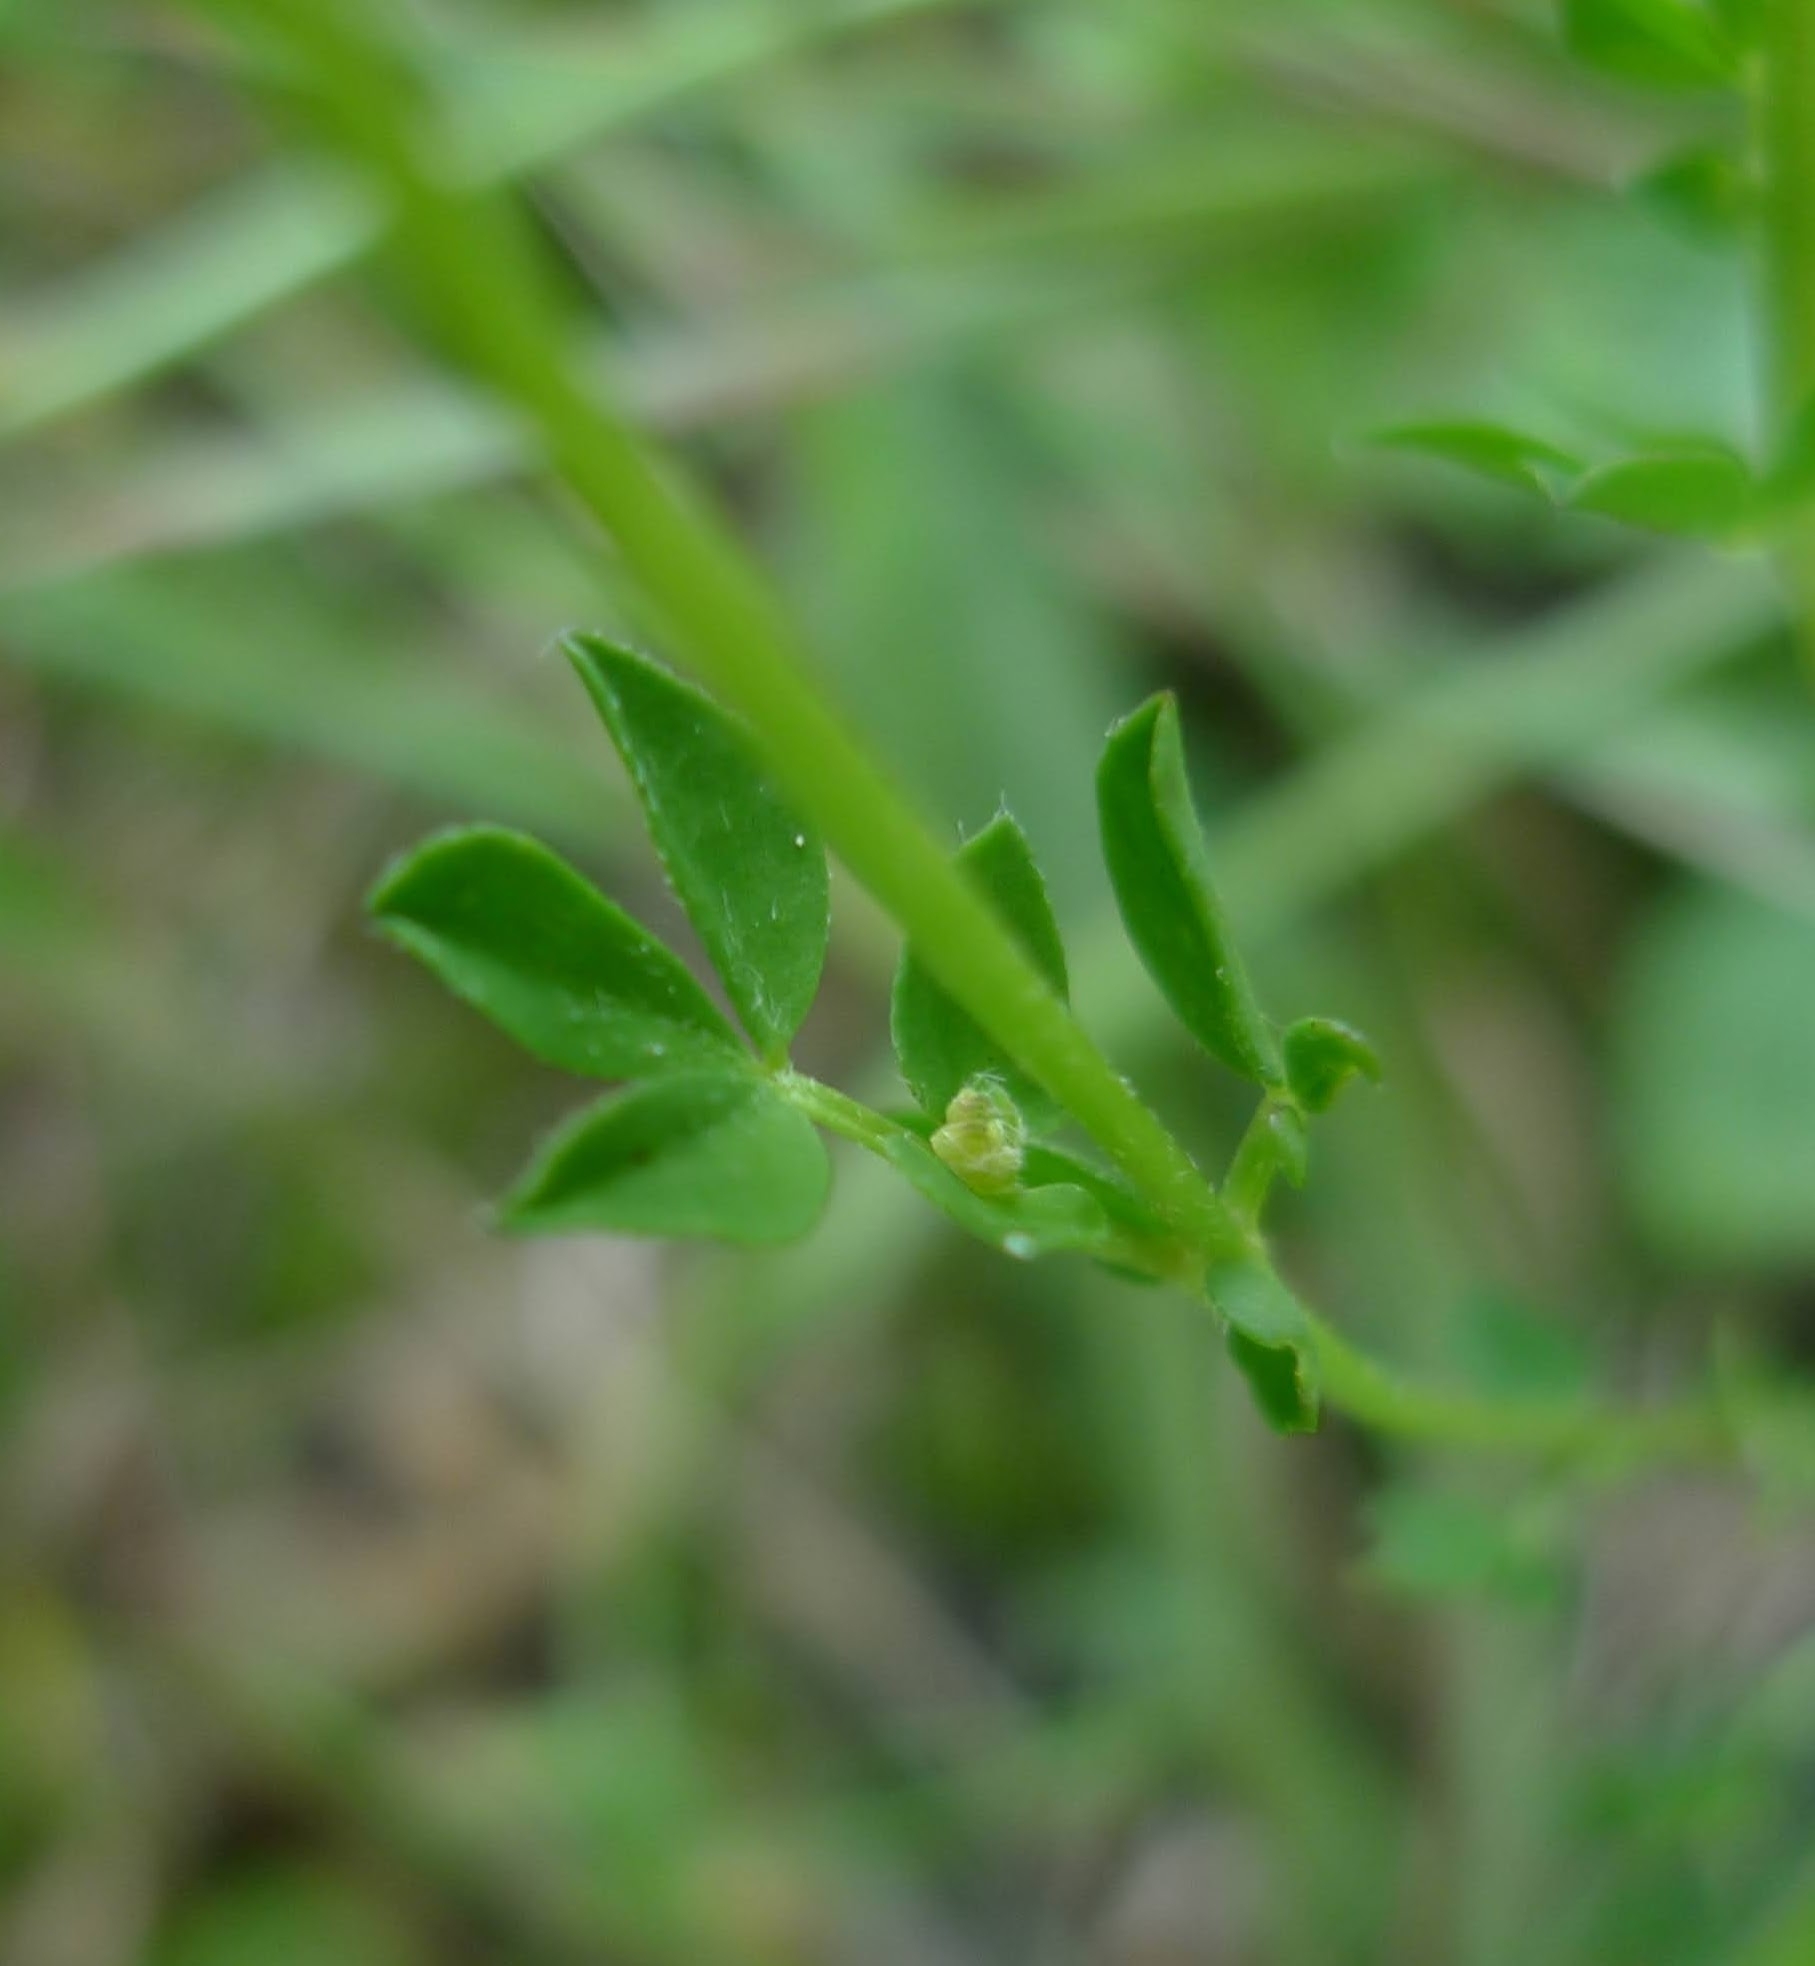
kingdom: Plantae
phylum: Tracheophyta
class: Magnoliopsida
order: Fabales
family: Fabaceae
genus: Lotus
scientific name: Lotus corniculatus
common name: Common bird's-foot-trefoil
